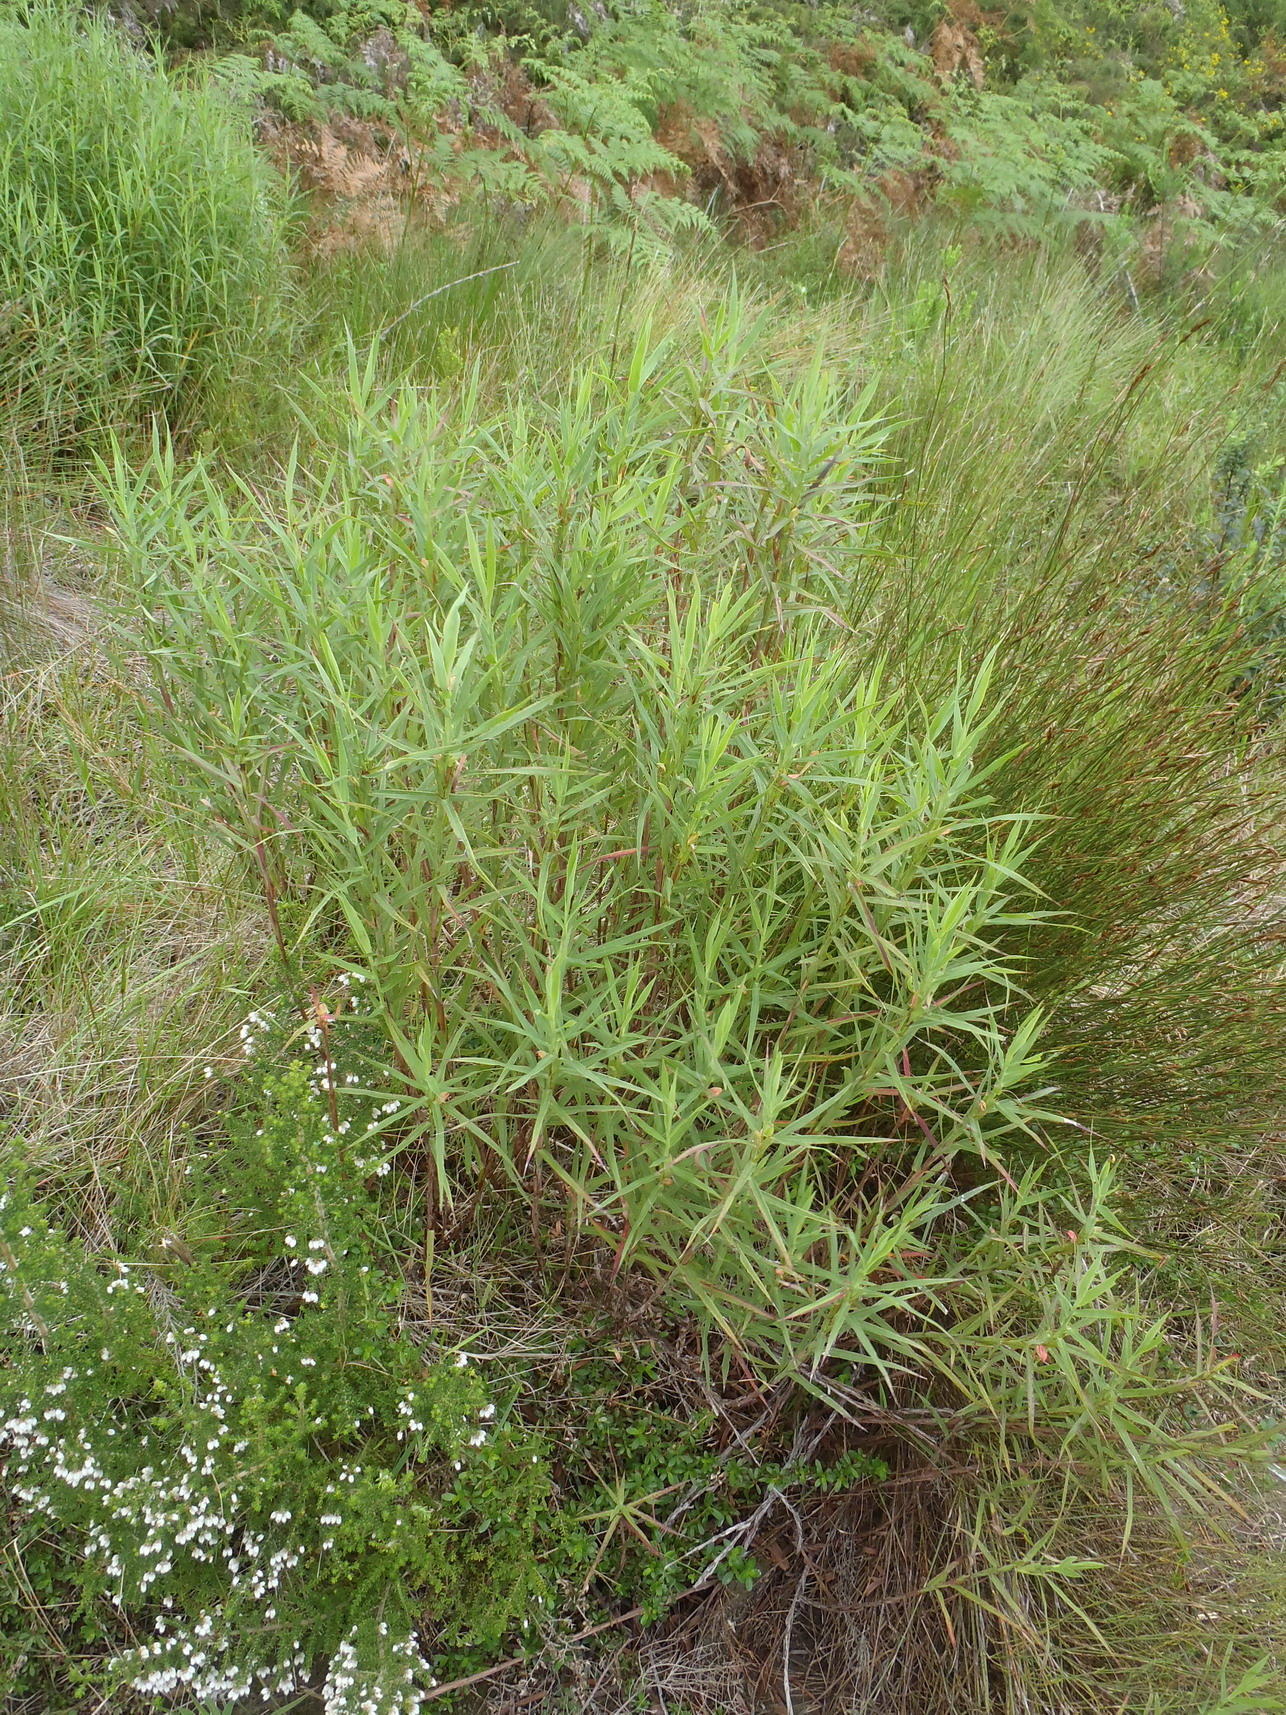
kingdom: Plantae
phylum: Tracheophyta
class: Magnoliopsida
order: Rosales
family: Rosaceae
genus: Cliffortia
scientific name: Cliffortia graminea
